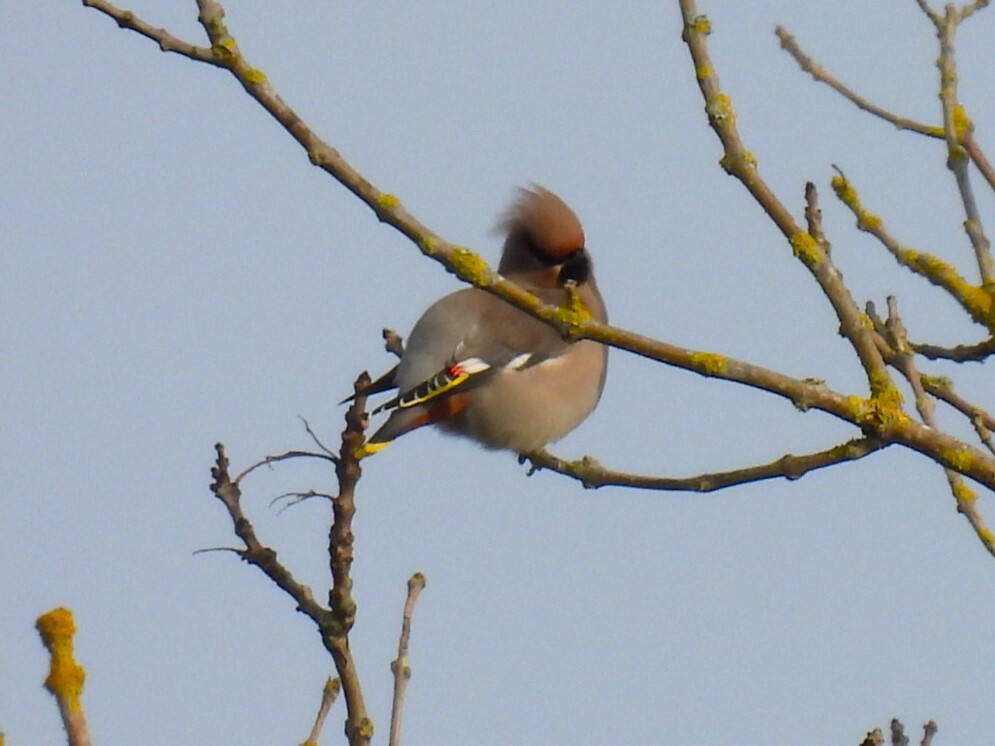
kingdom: Animalia
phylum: Chordata
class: Aves
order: Passeriformes
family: Bombycillidae
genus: Bombycilla
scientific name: Bombycilla garrulus
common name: Bohemian waxwing
